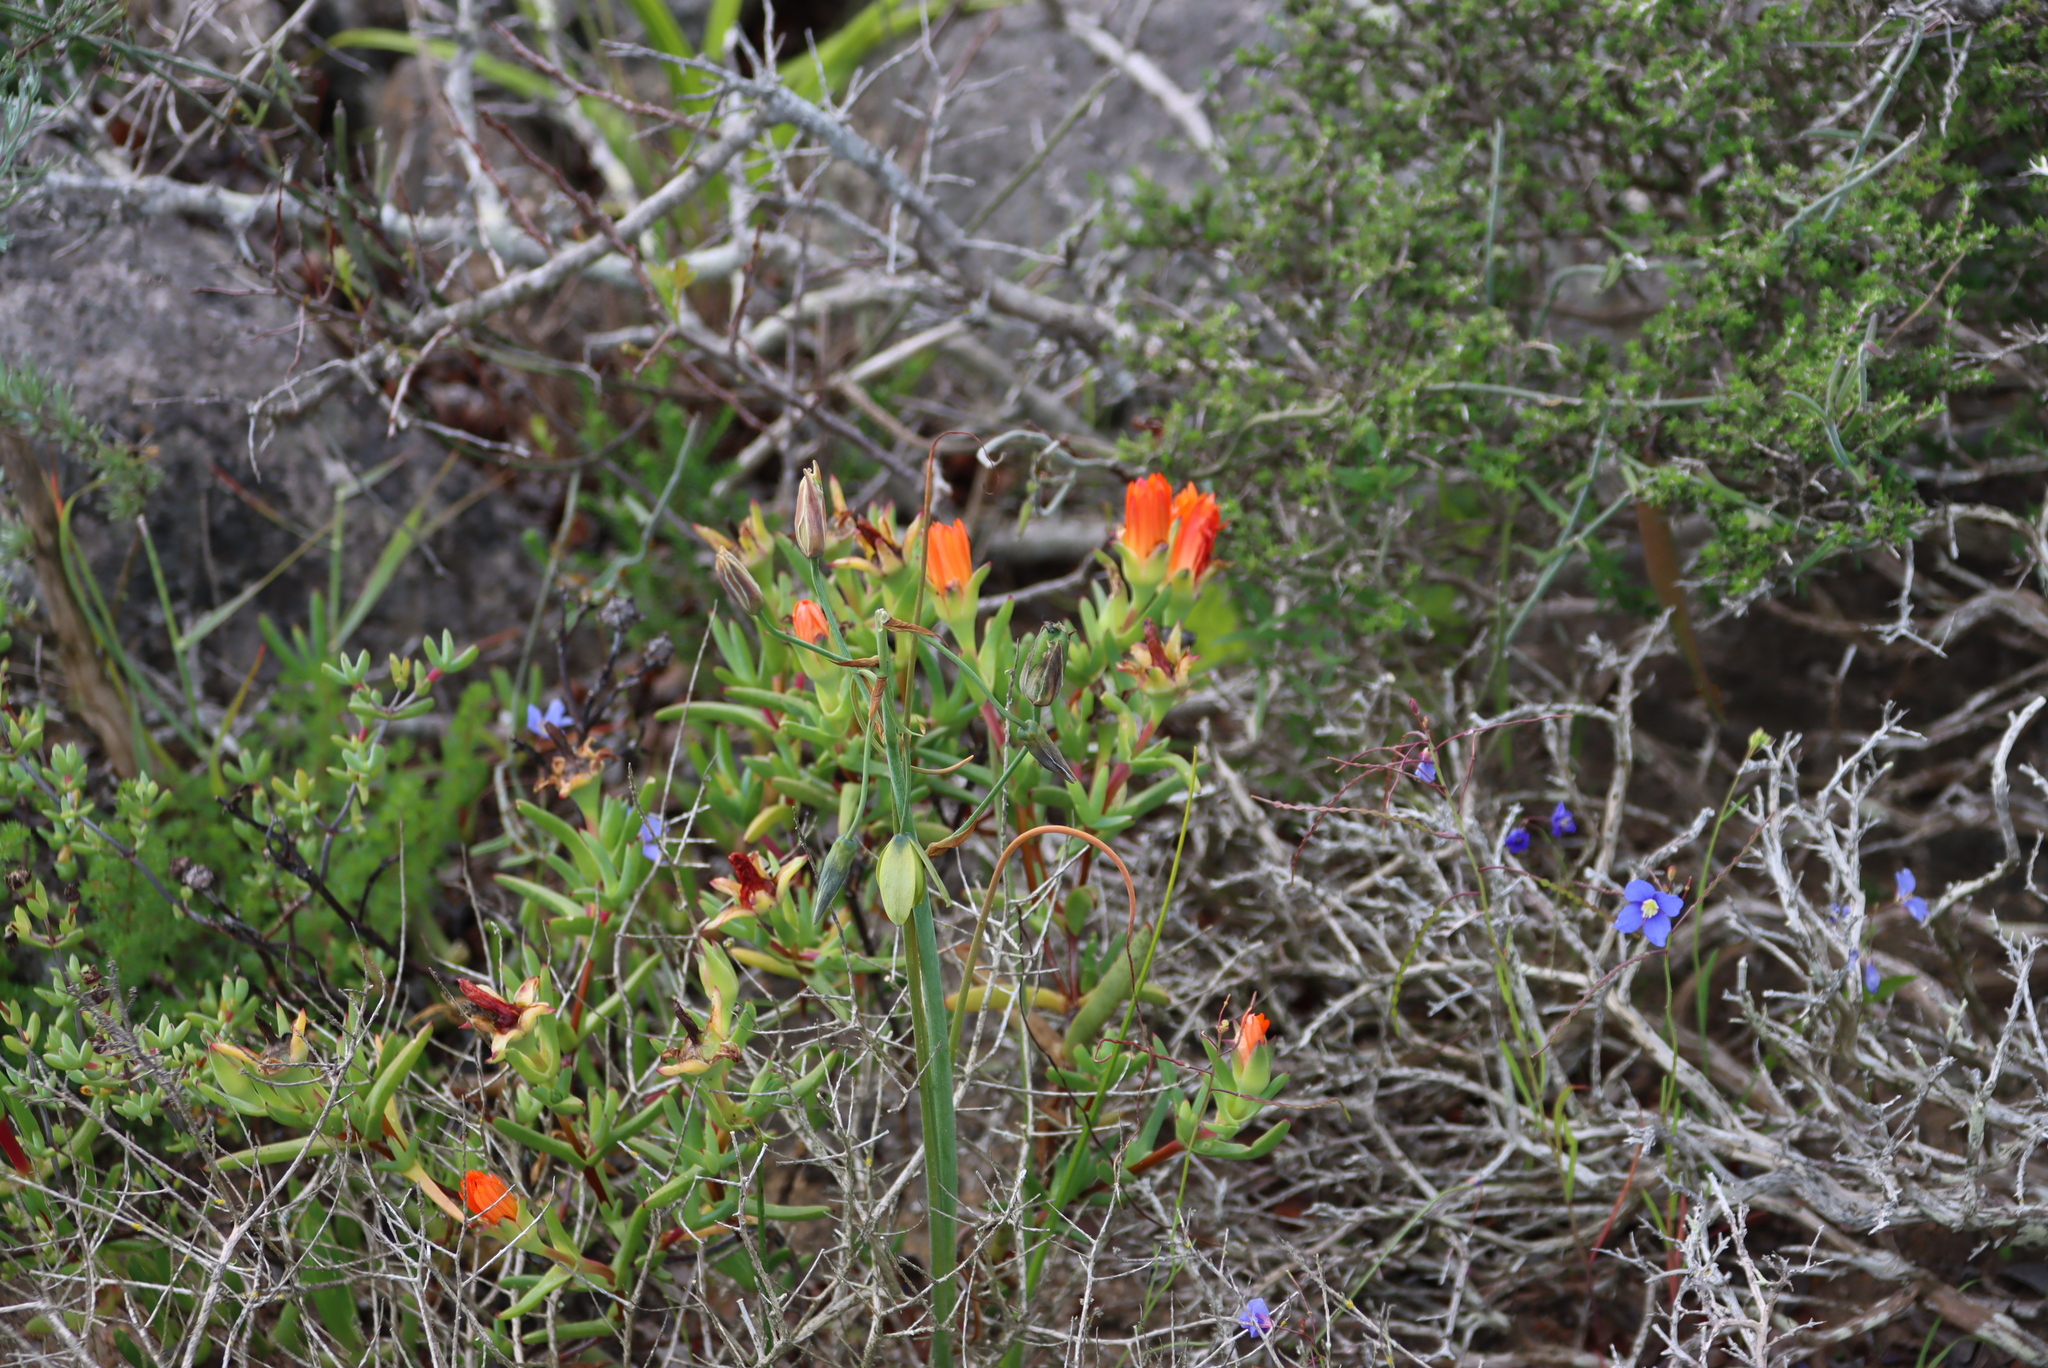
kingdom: Plantae
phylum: Tracheophyta
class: Magnoliopsida
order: Caryophyllales
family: Aizoaceae
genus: Lampranthus
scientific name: Lampranthus aureus
